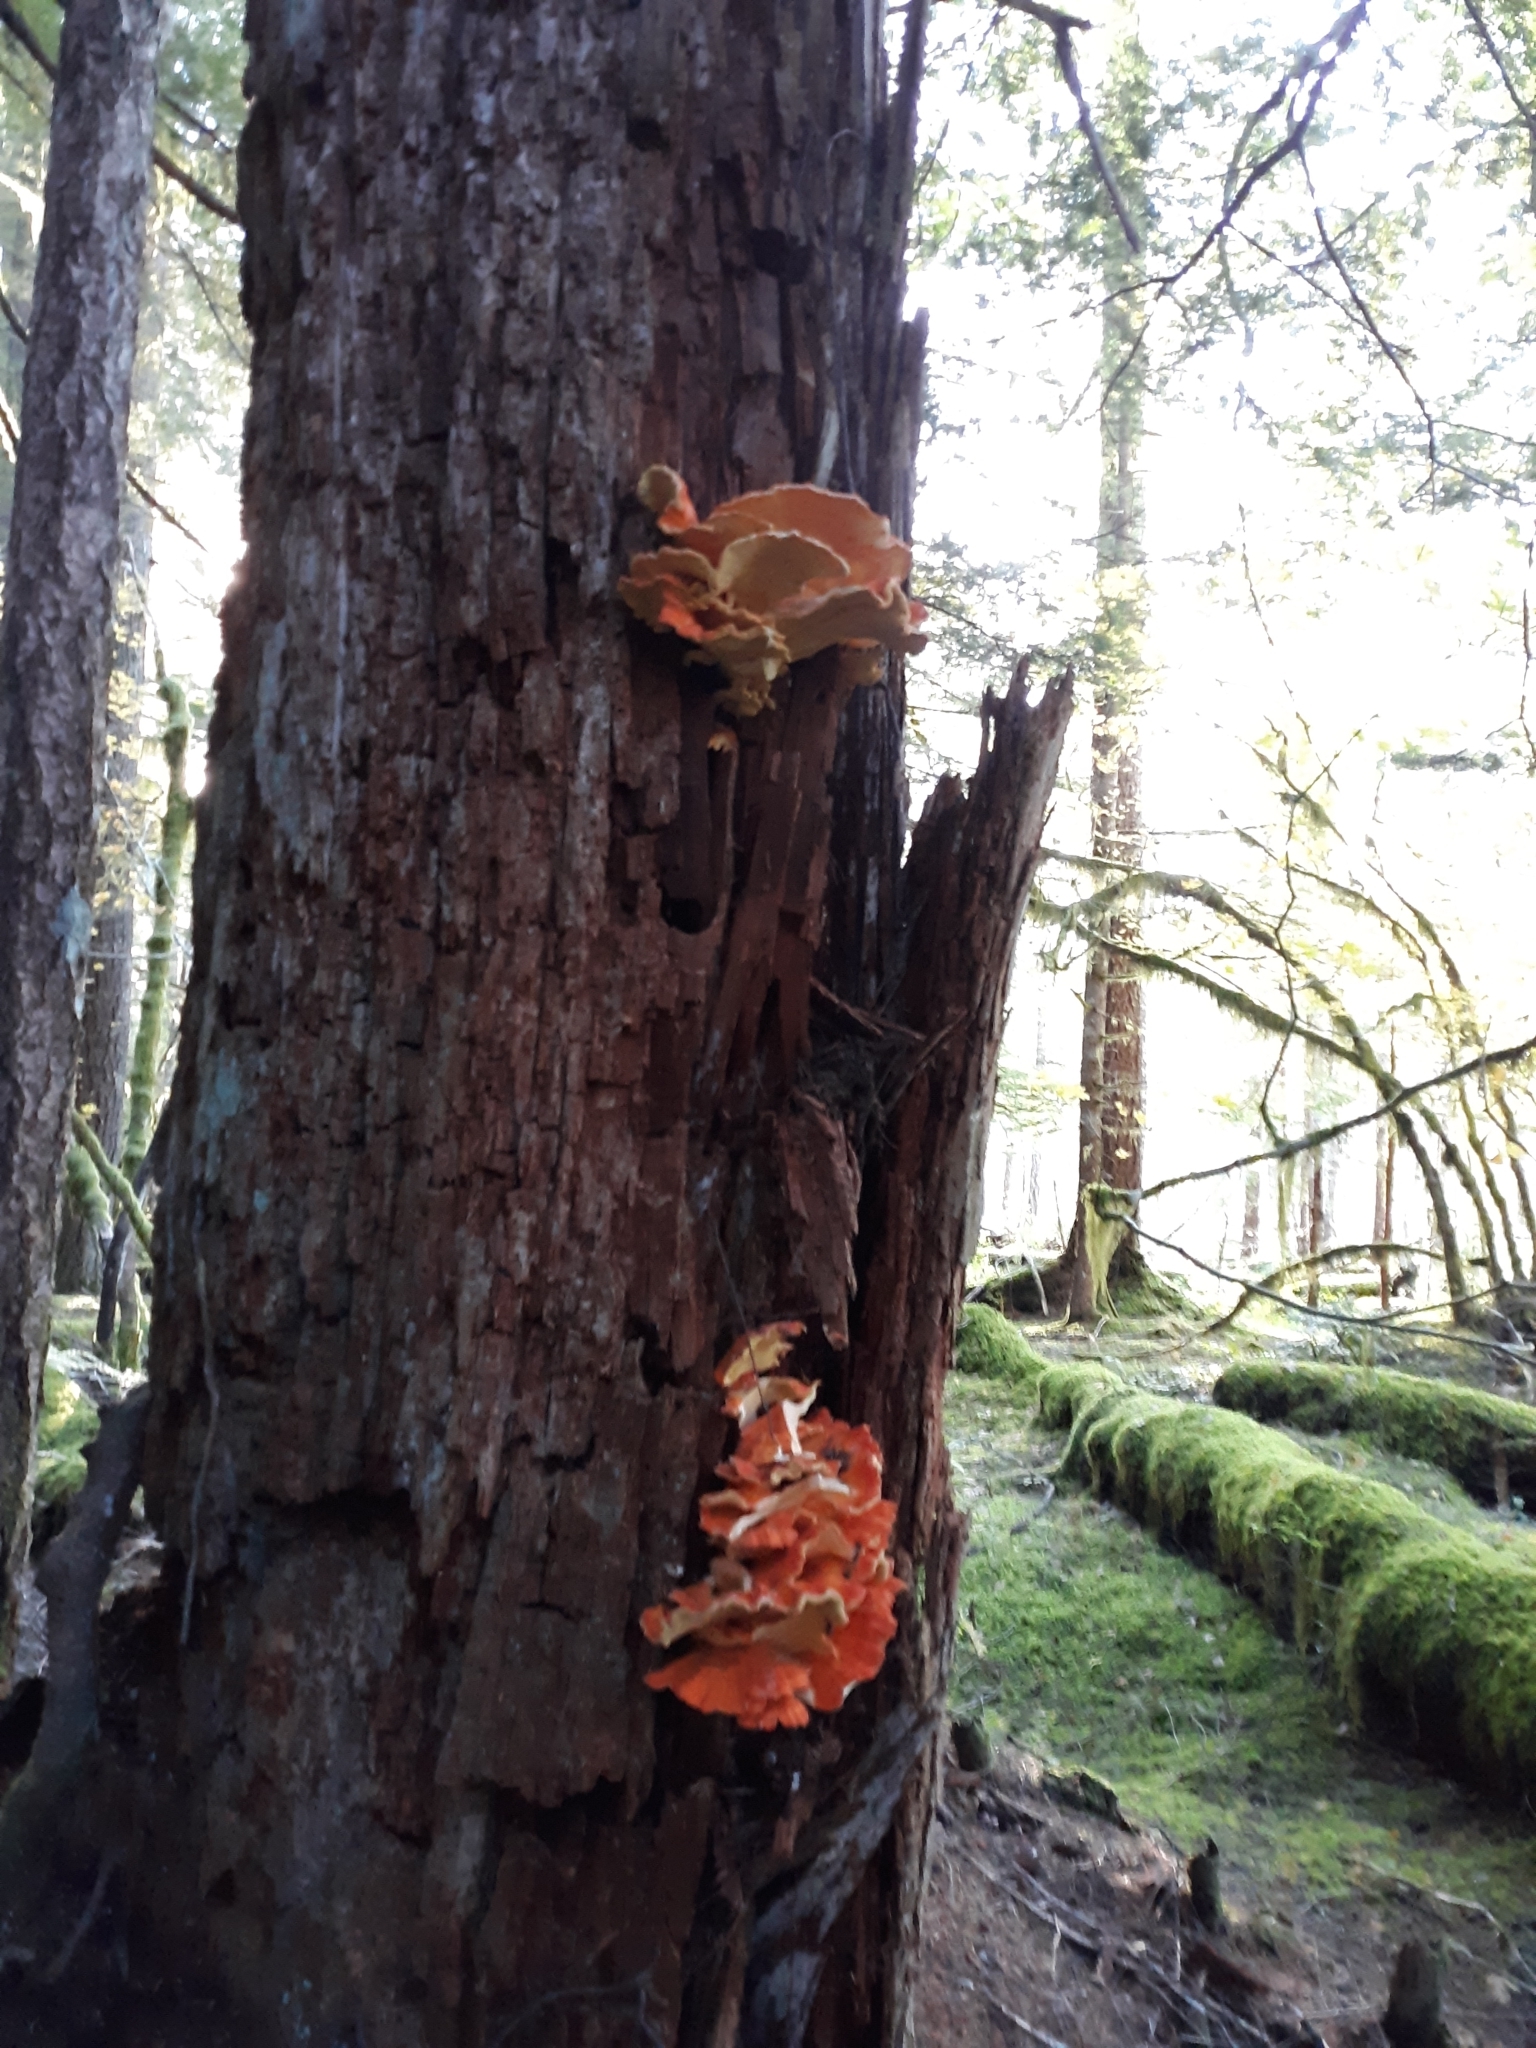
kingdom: Fungi
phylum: Basidiomycota
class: Agaricomycetes
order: Polyporales
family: Laetiporaceae
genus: Laetiporus
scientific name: Laetiporus conifericola
